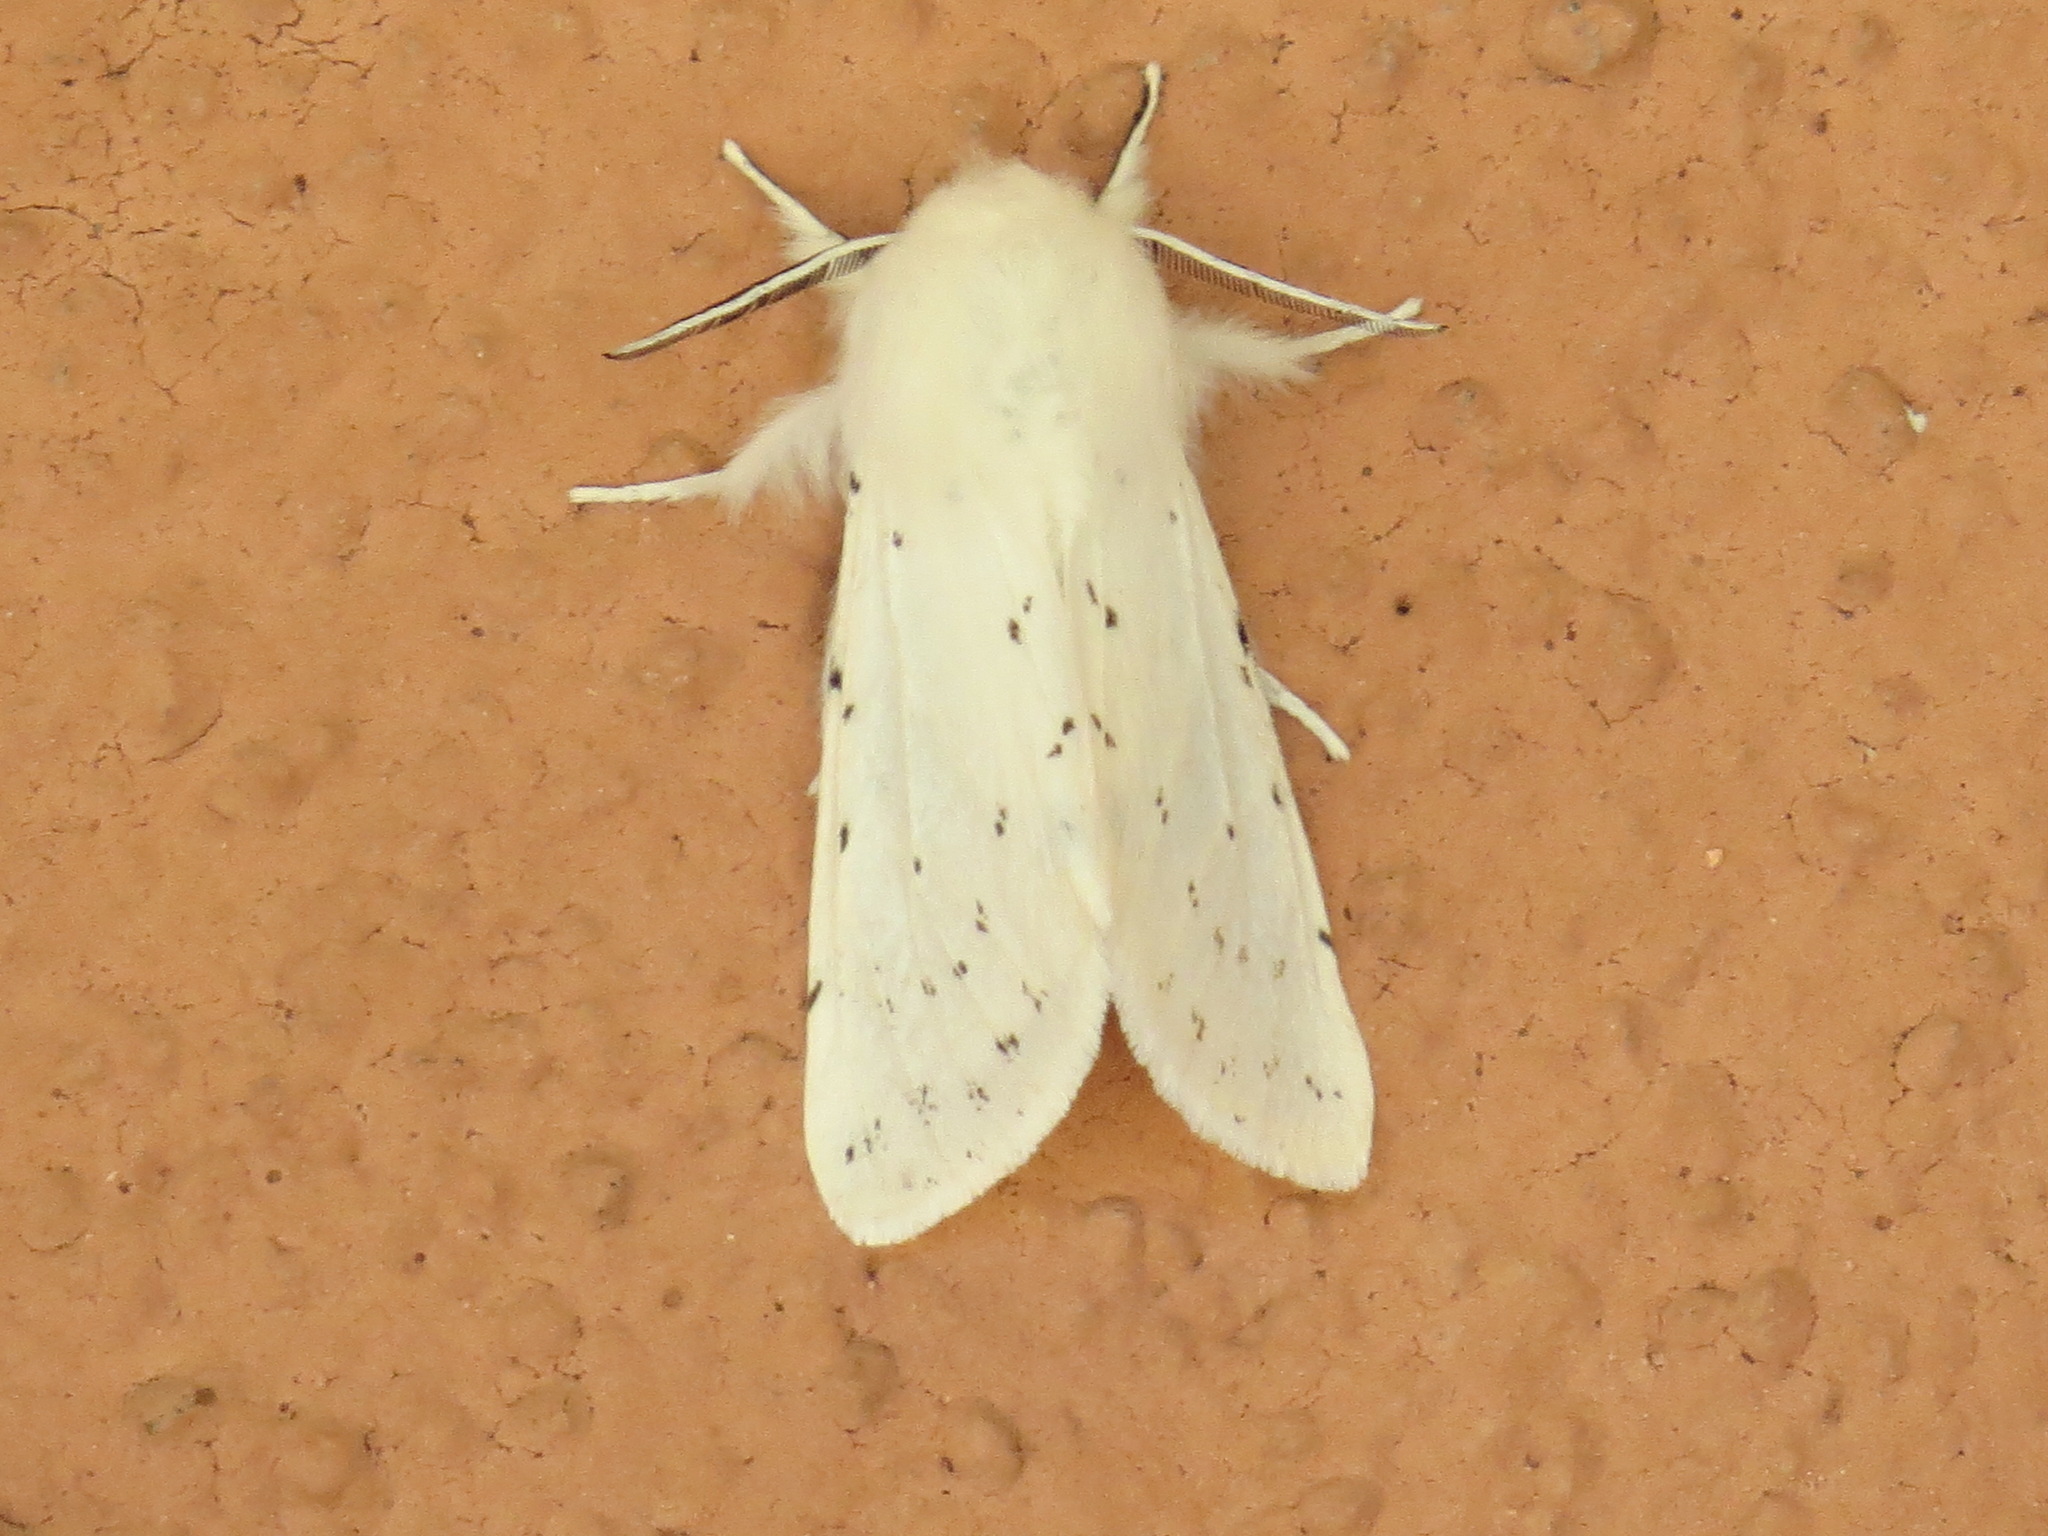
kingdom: Animalia
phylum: Arthropoda
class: Insecta
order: Lepidoptera
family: Erebidae
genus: Spilosoma
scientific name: Spilosoma vestalis
